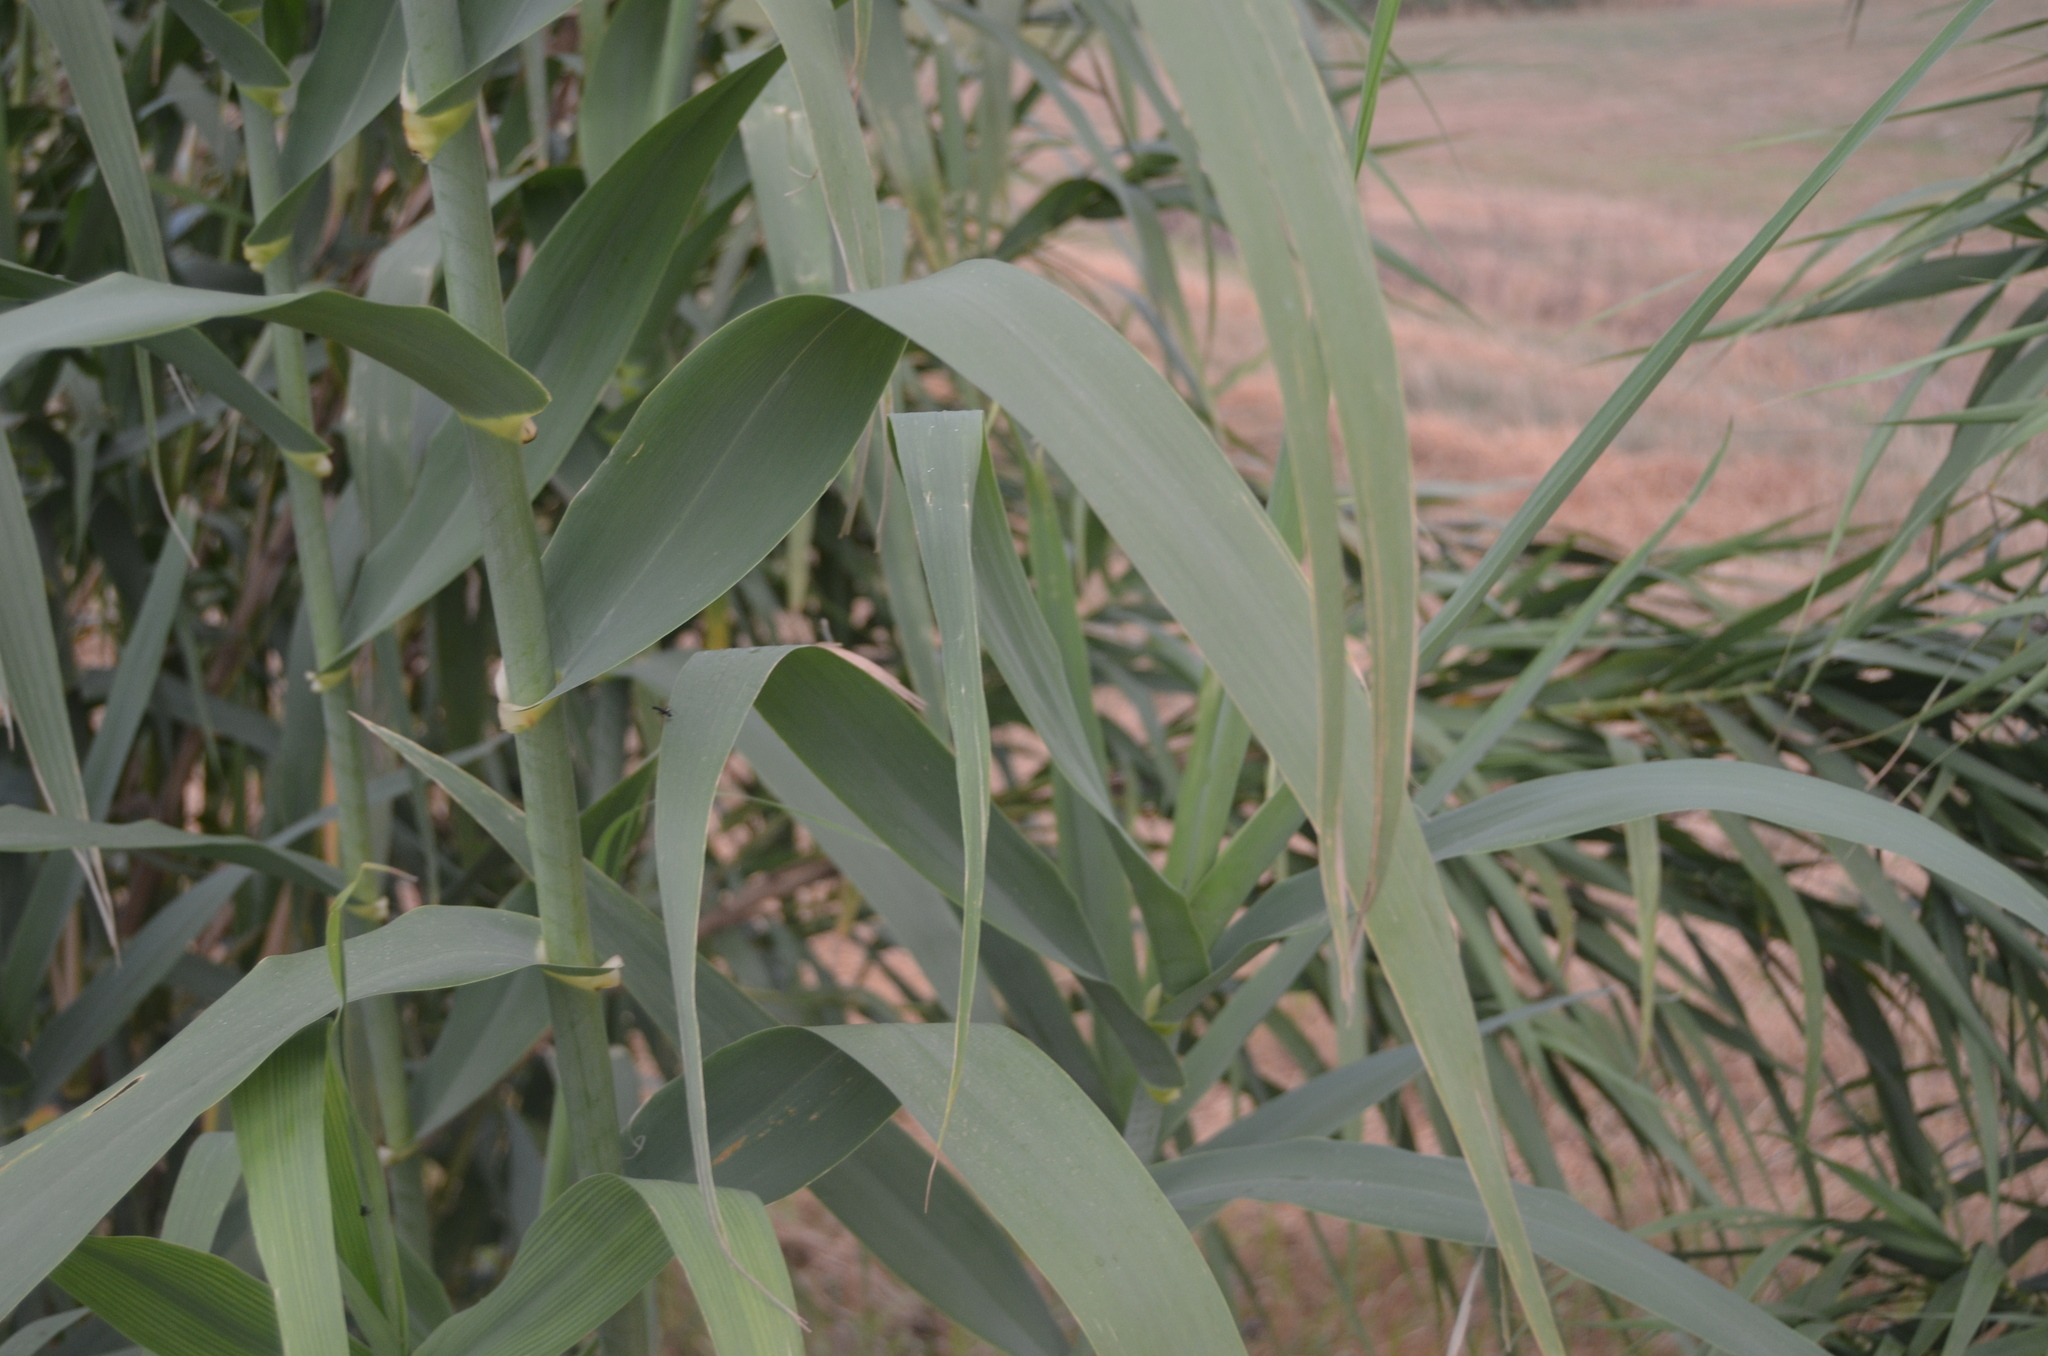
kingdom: Plantae
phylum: Tracheophyta
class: Liliopsida
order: Poales
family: Poaceae
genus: Arundo
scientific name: Arundo donax
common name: Giant reed
